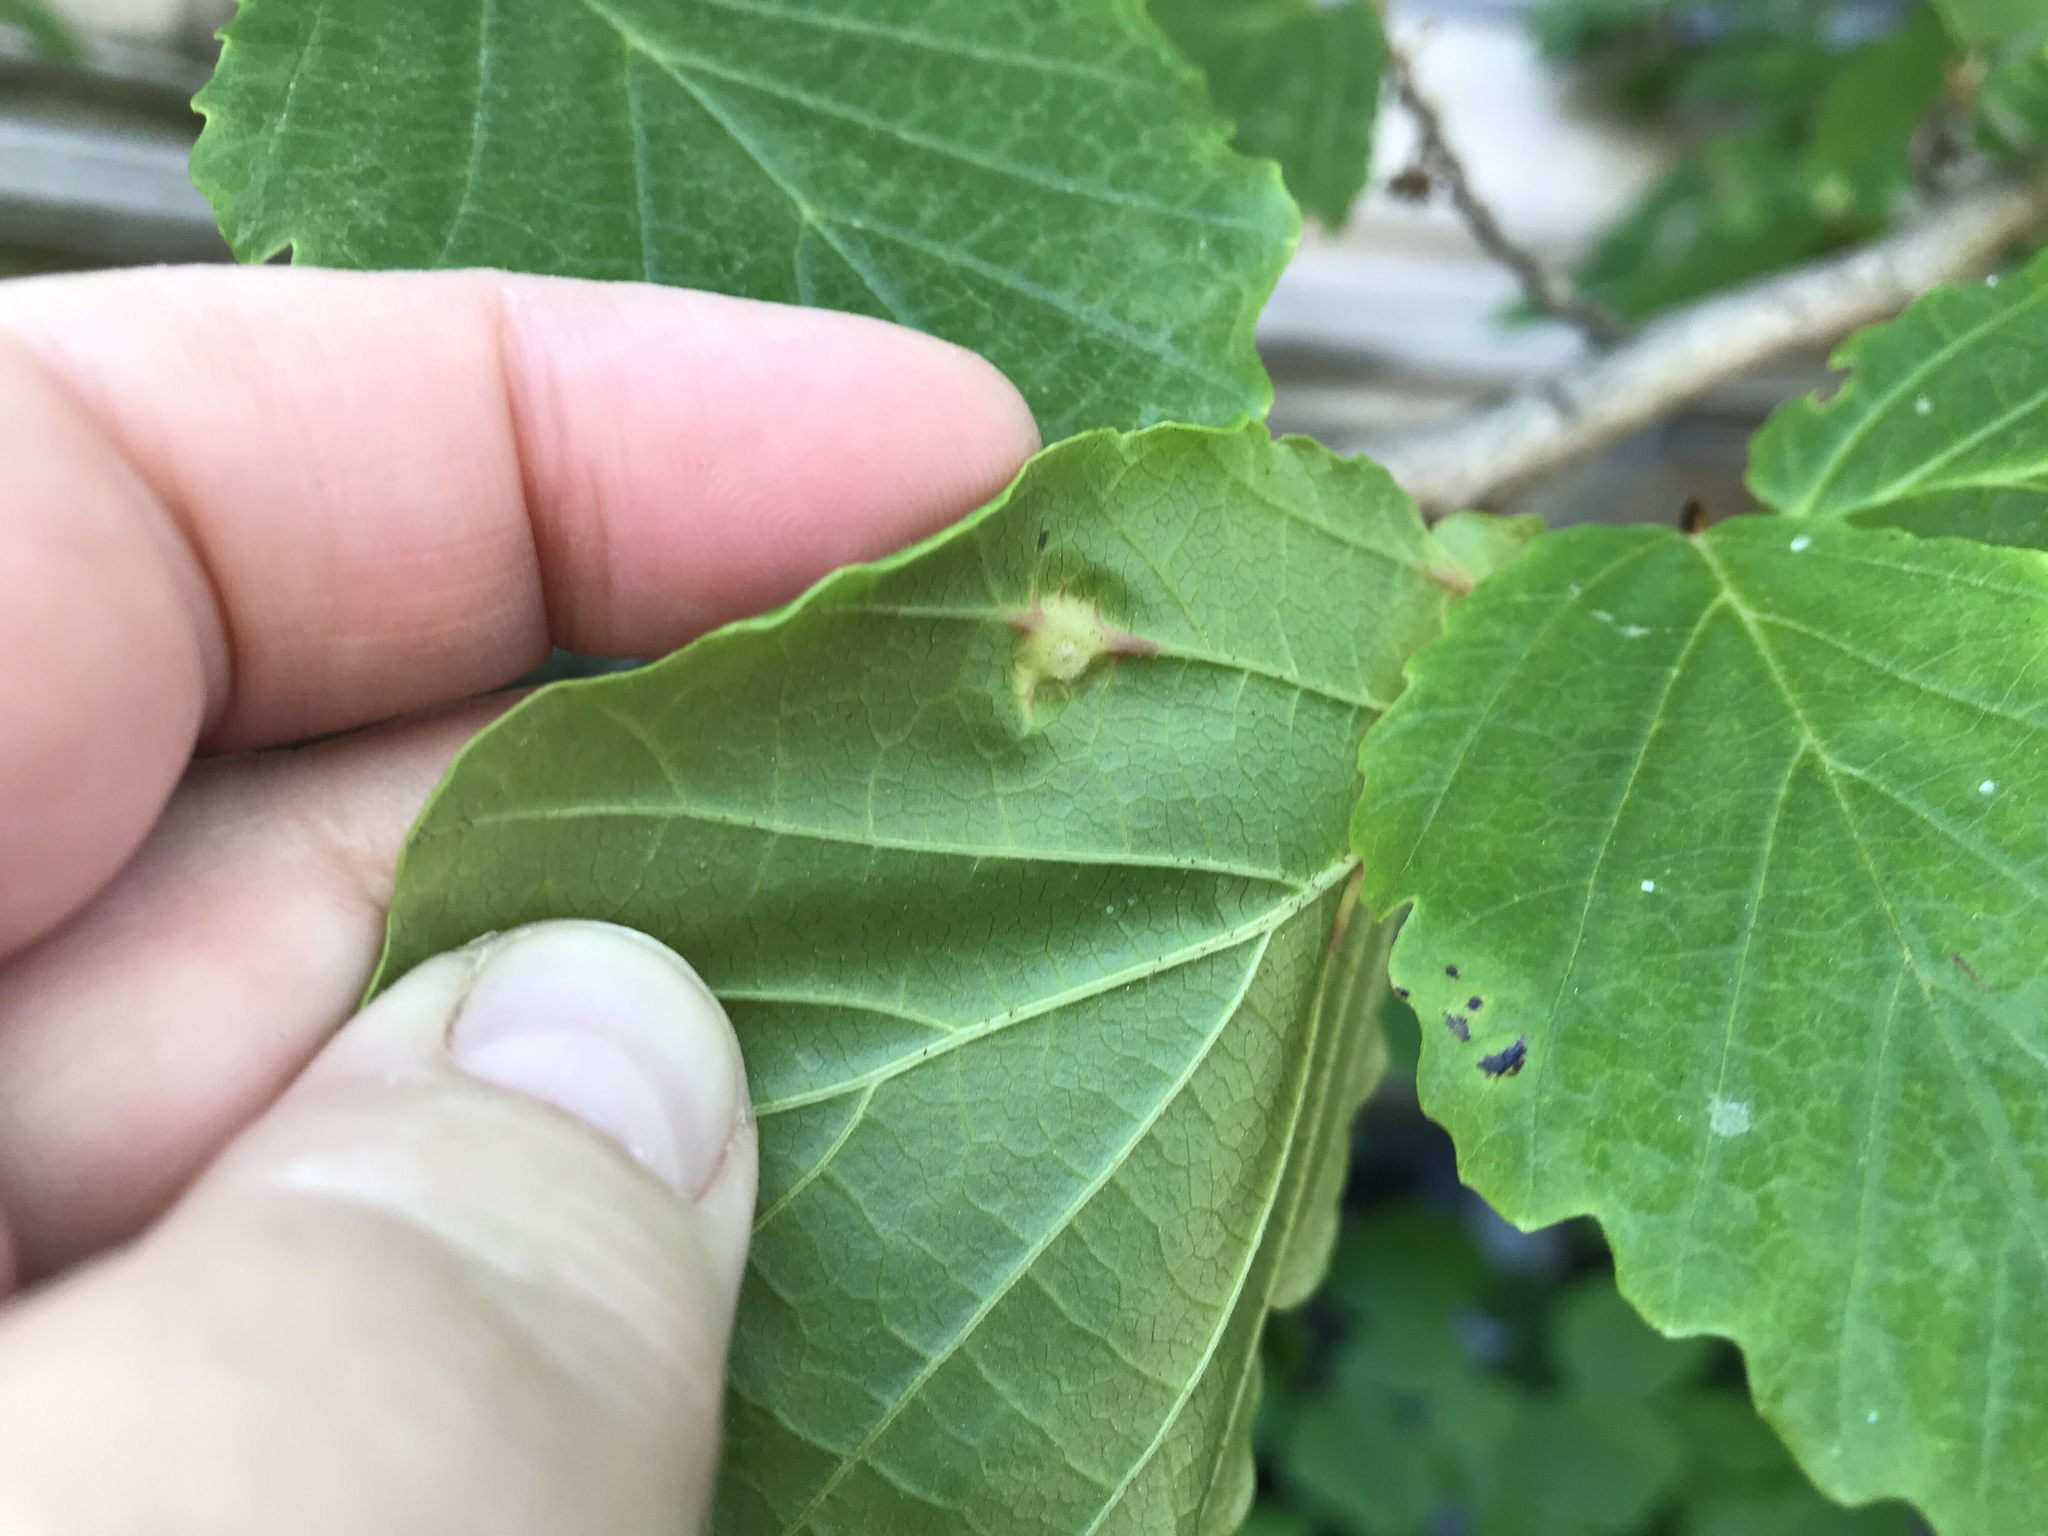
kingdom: Animalia
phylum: Arthropoda
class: Insecta
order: Hemiptera
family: Aphididae
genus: Hormaphis
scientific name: Hormaphis hamamelidis
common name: Witch-hazel cone gall aphid
